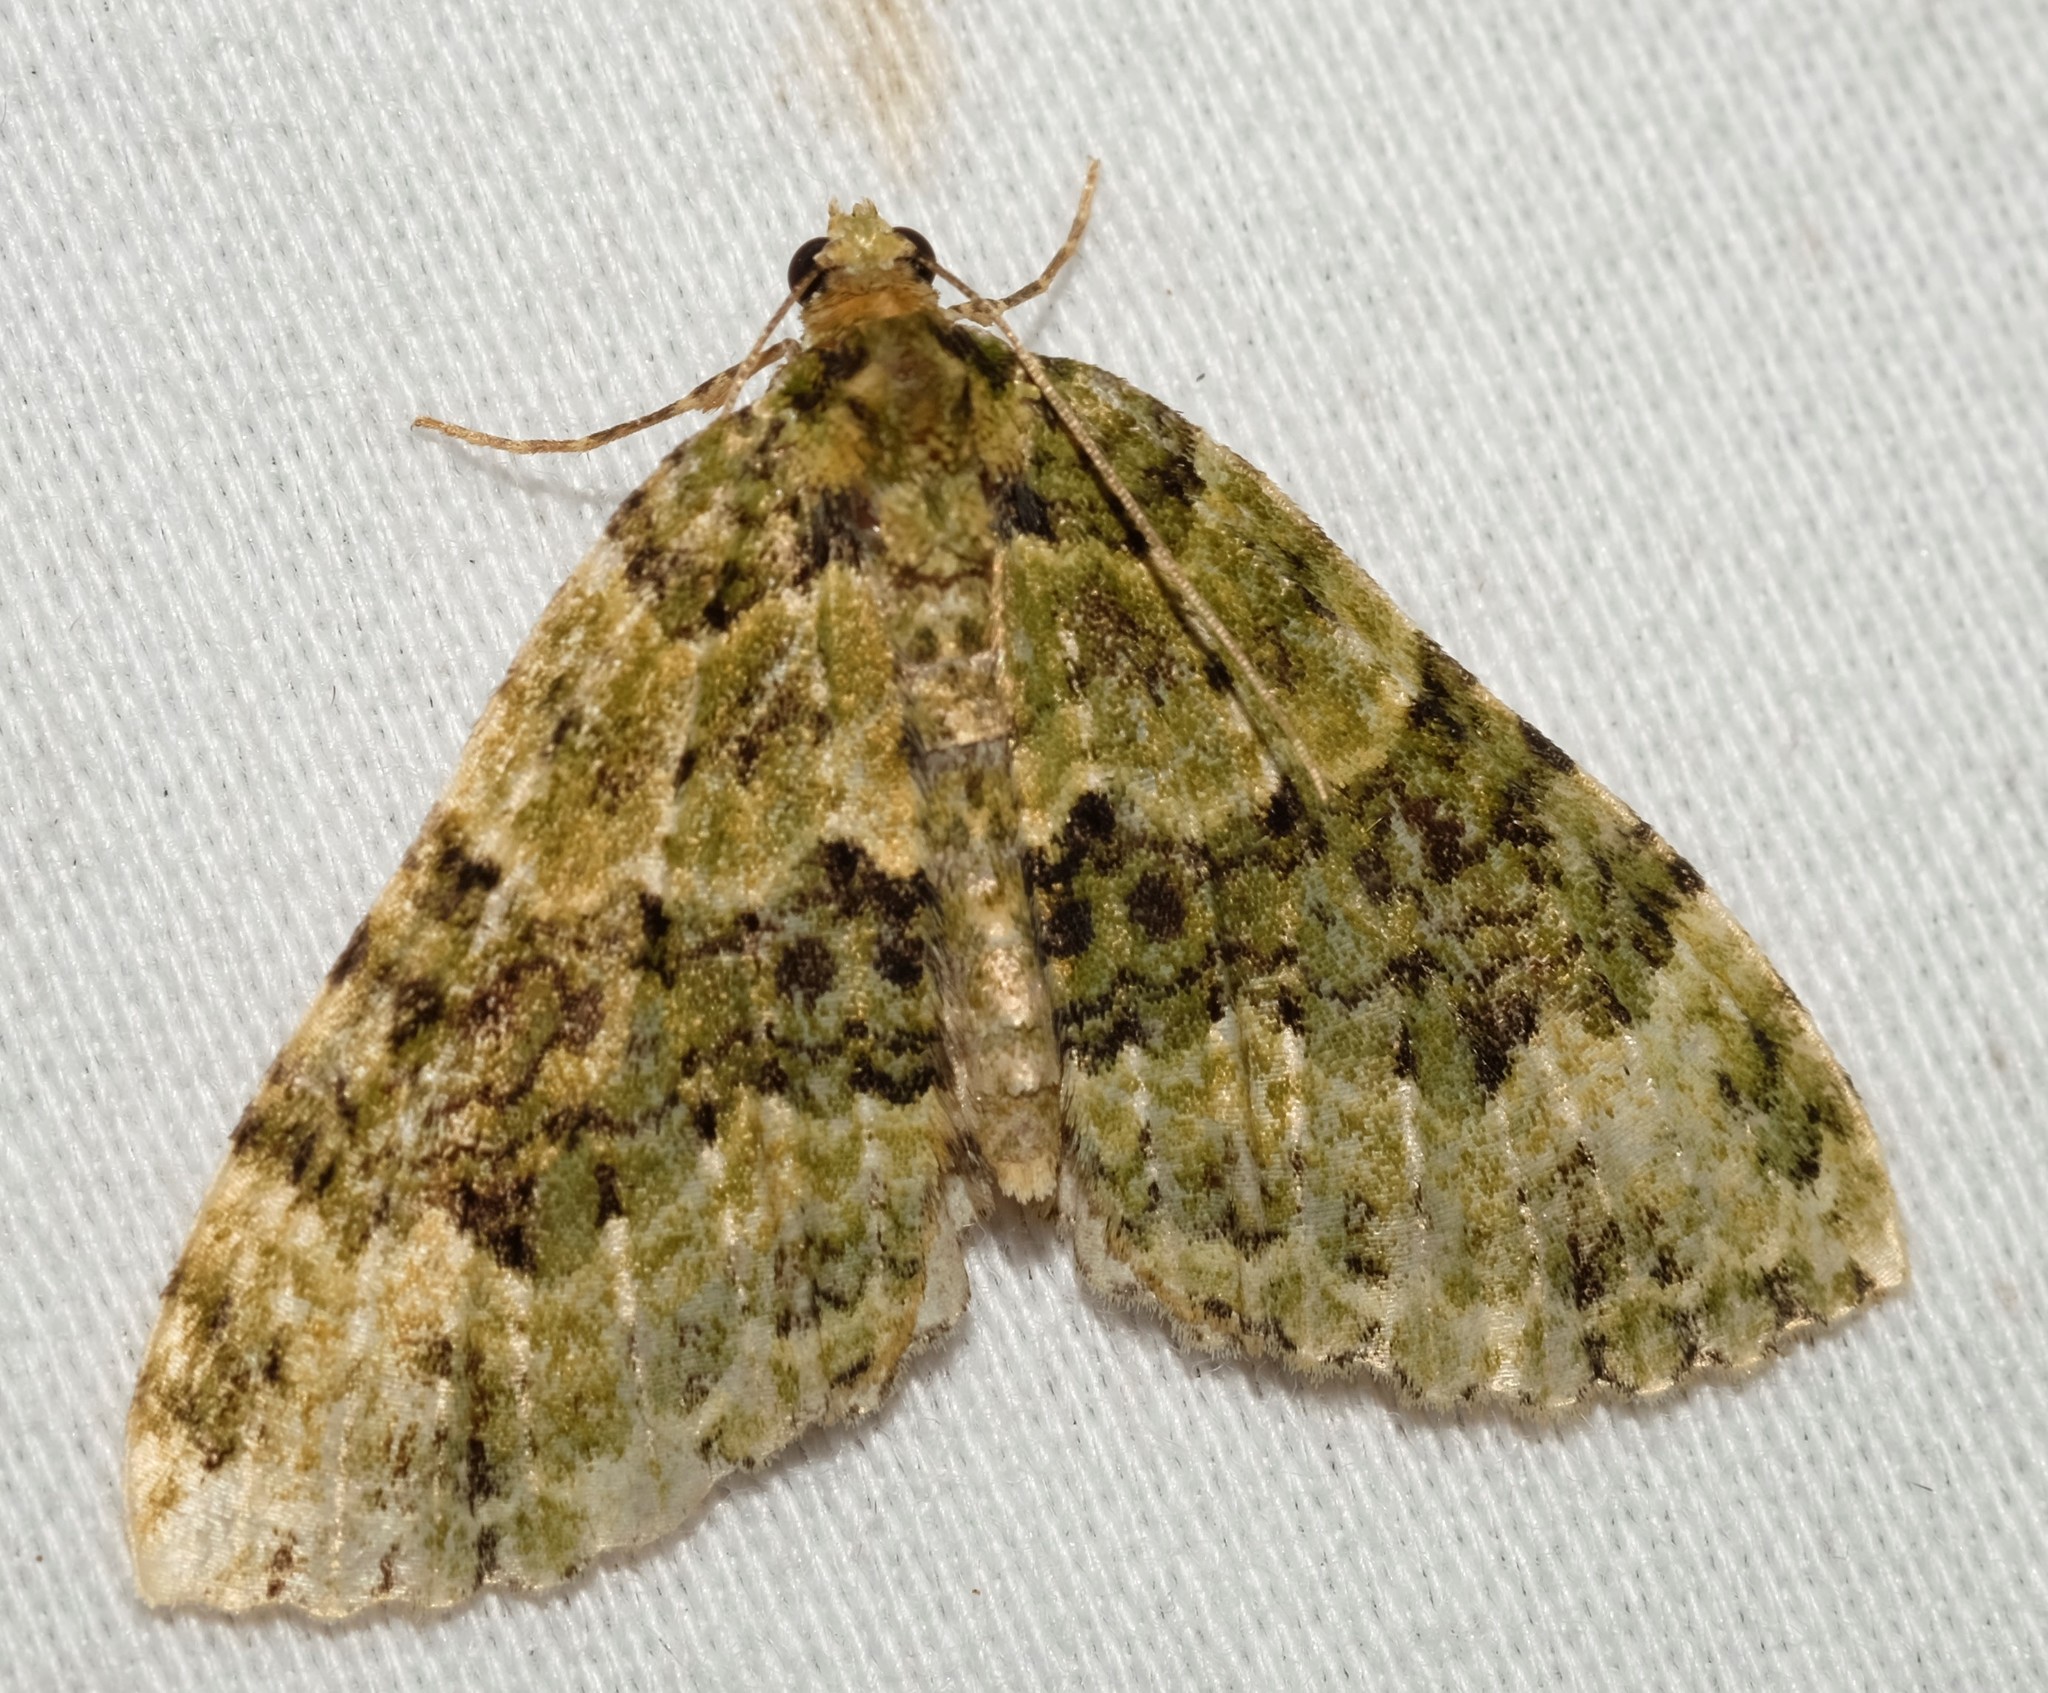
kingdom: Animalia
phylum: Arthropoda
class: Insecta
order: Lepidoptera
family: Geometridae
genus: Austrocidaria
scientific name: Austrocidaria erasta
